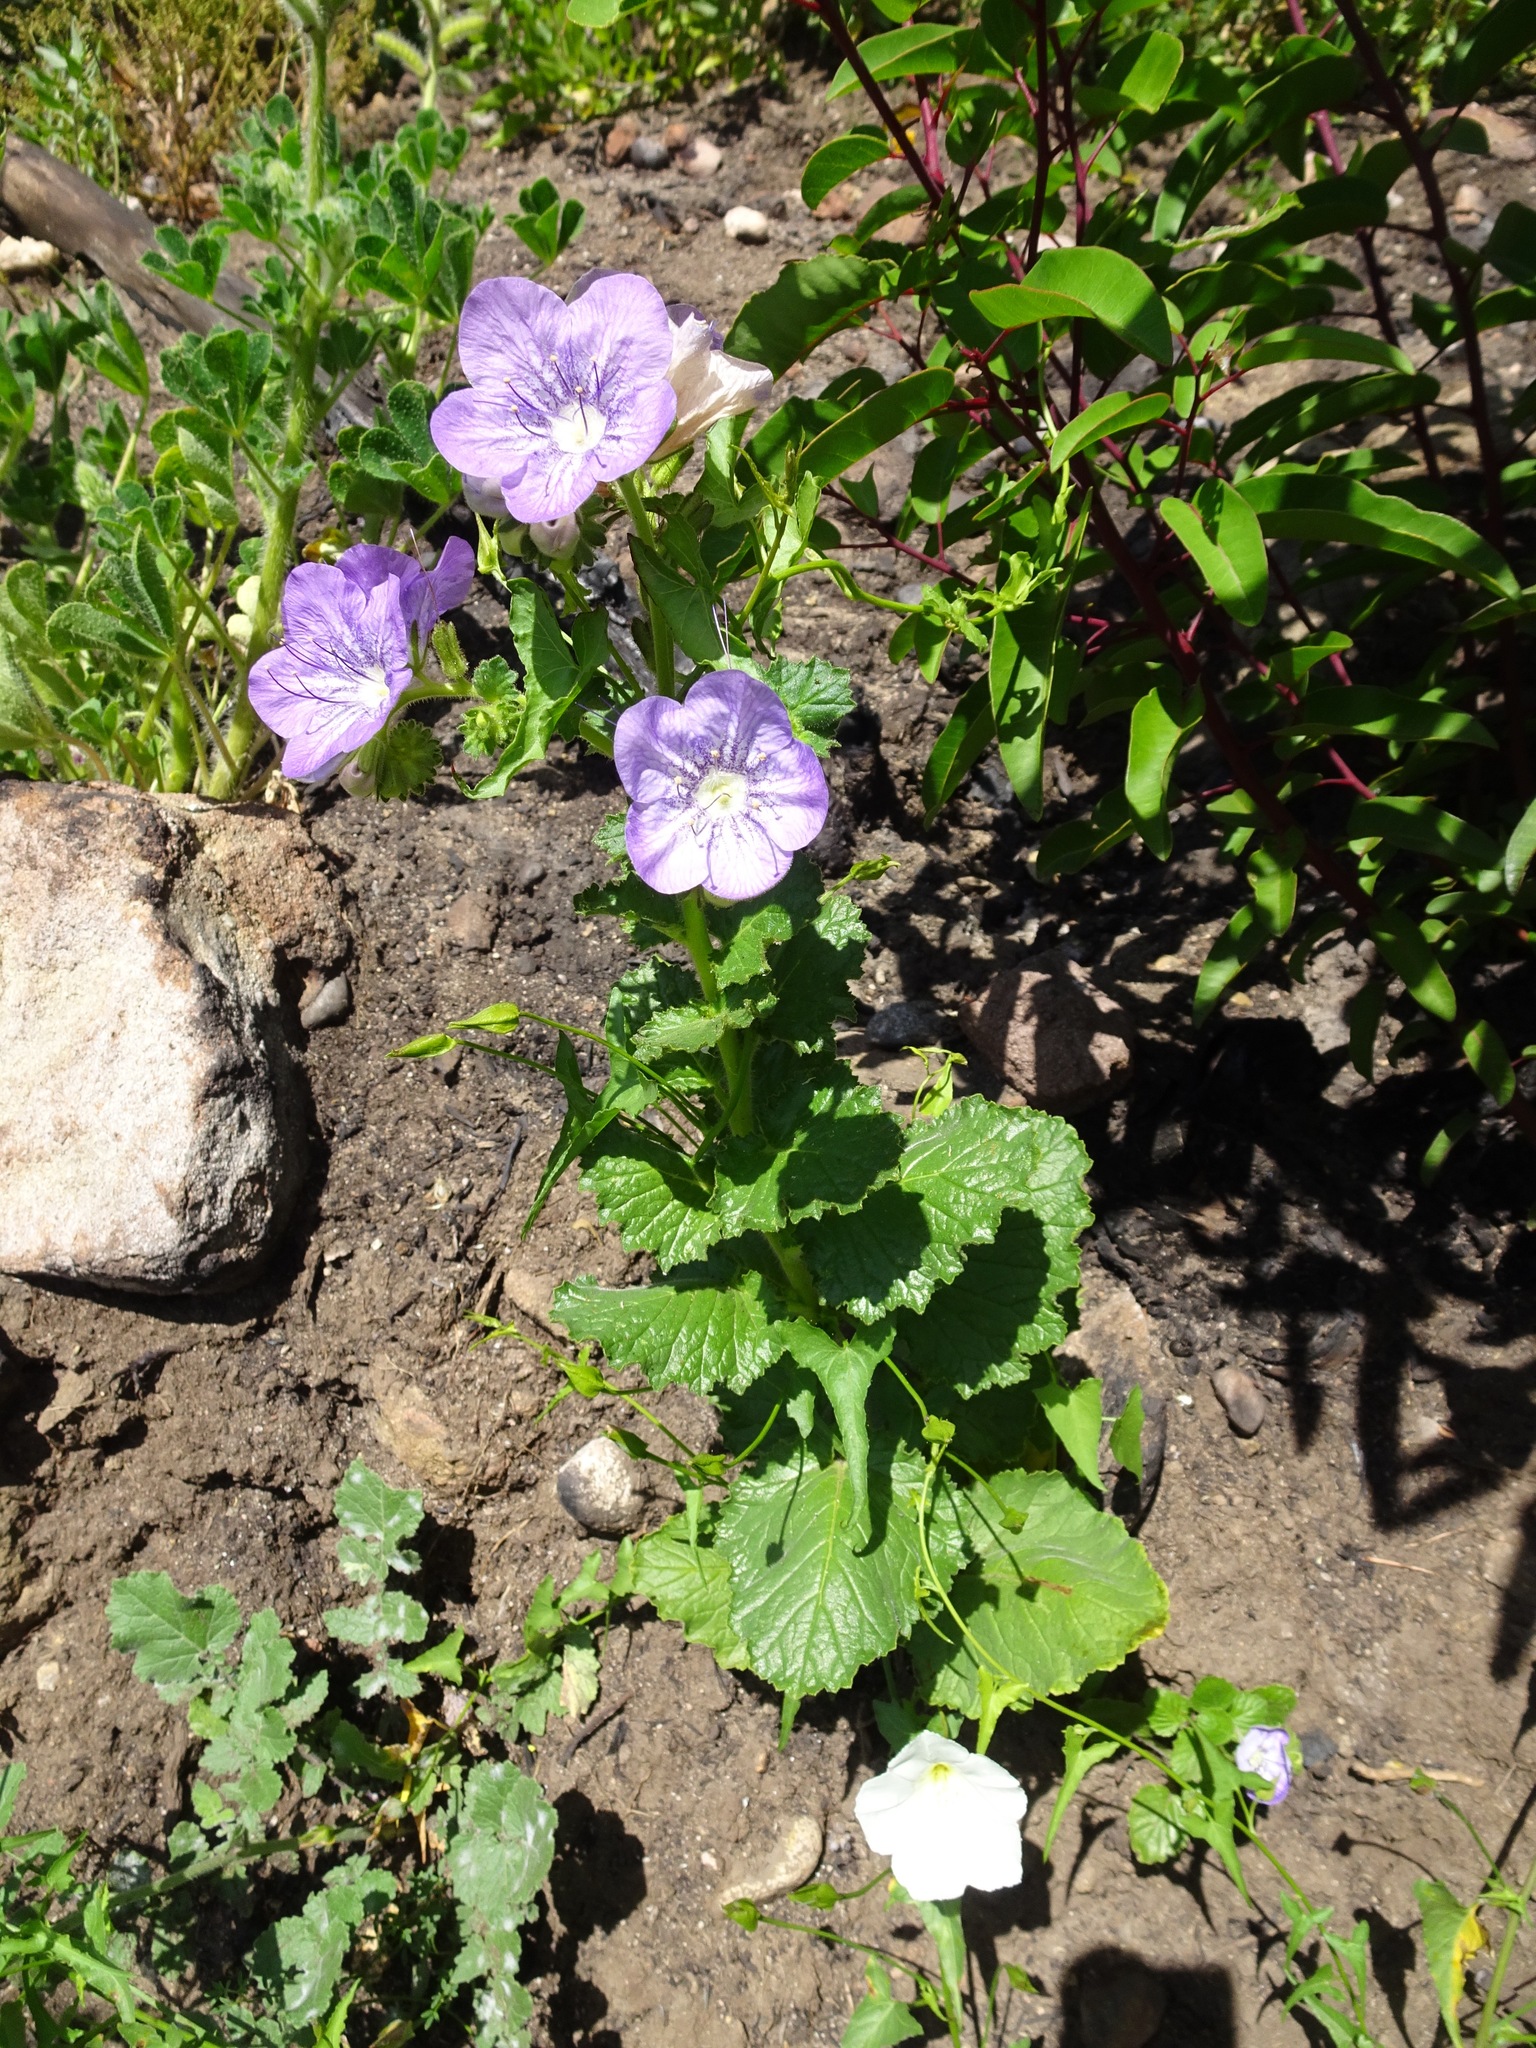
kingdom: Plantae
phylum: Tracheophyta
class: Magnoliopsida
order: Boraginales
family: Hydrophyllaceae
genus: Phacelia
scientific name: Phacelia grandiflora
